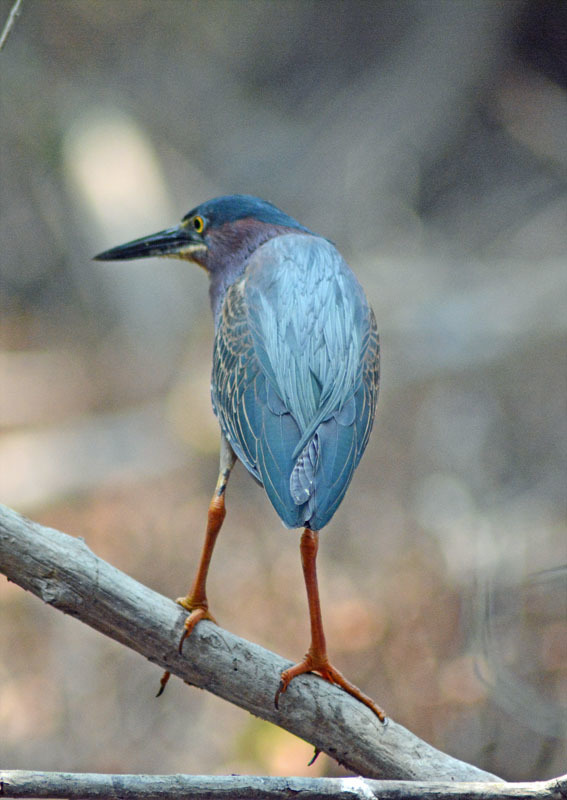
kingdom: Animalia
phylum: Chordata
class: Aves
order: Pelecaniformes
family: Ardeidae
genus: Butorides
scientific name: Butorides virescens
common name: Green heron
